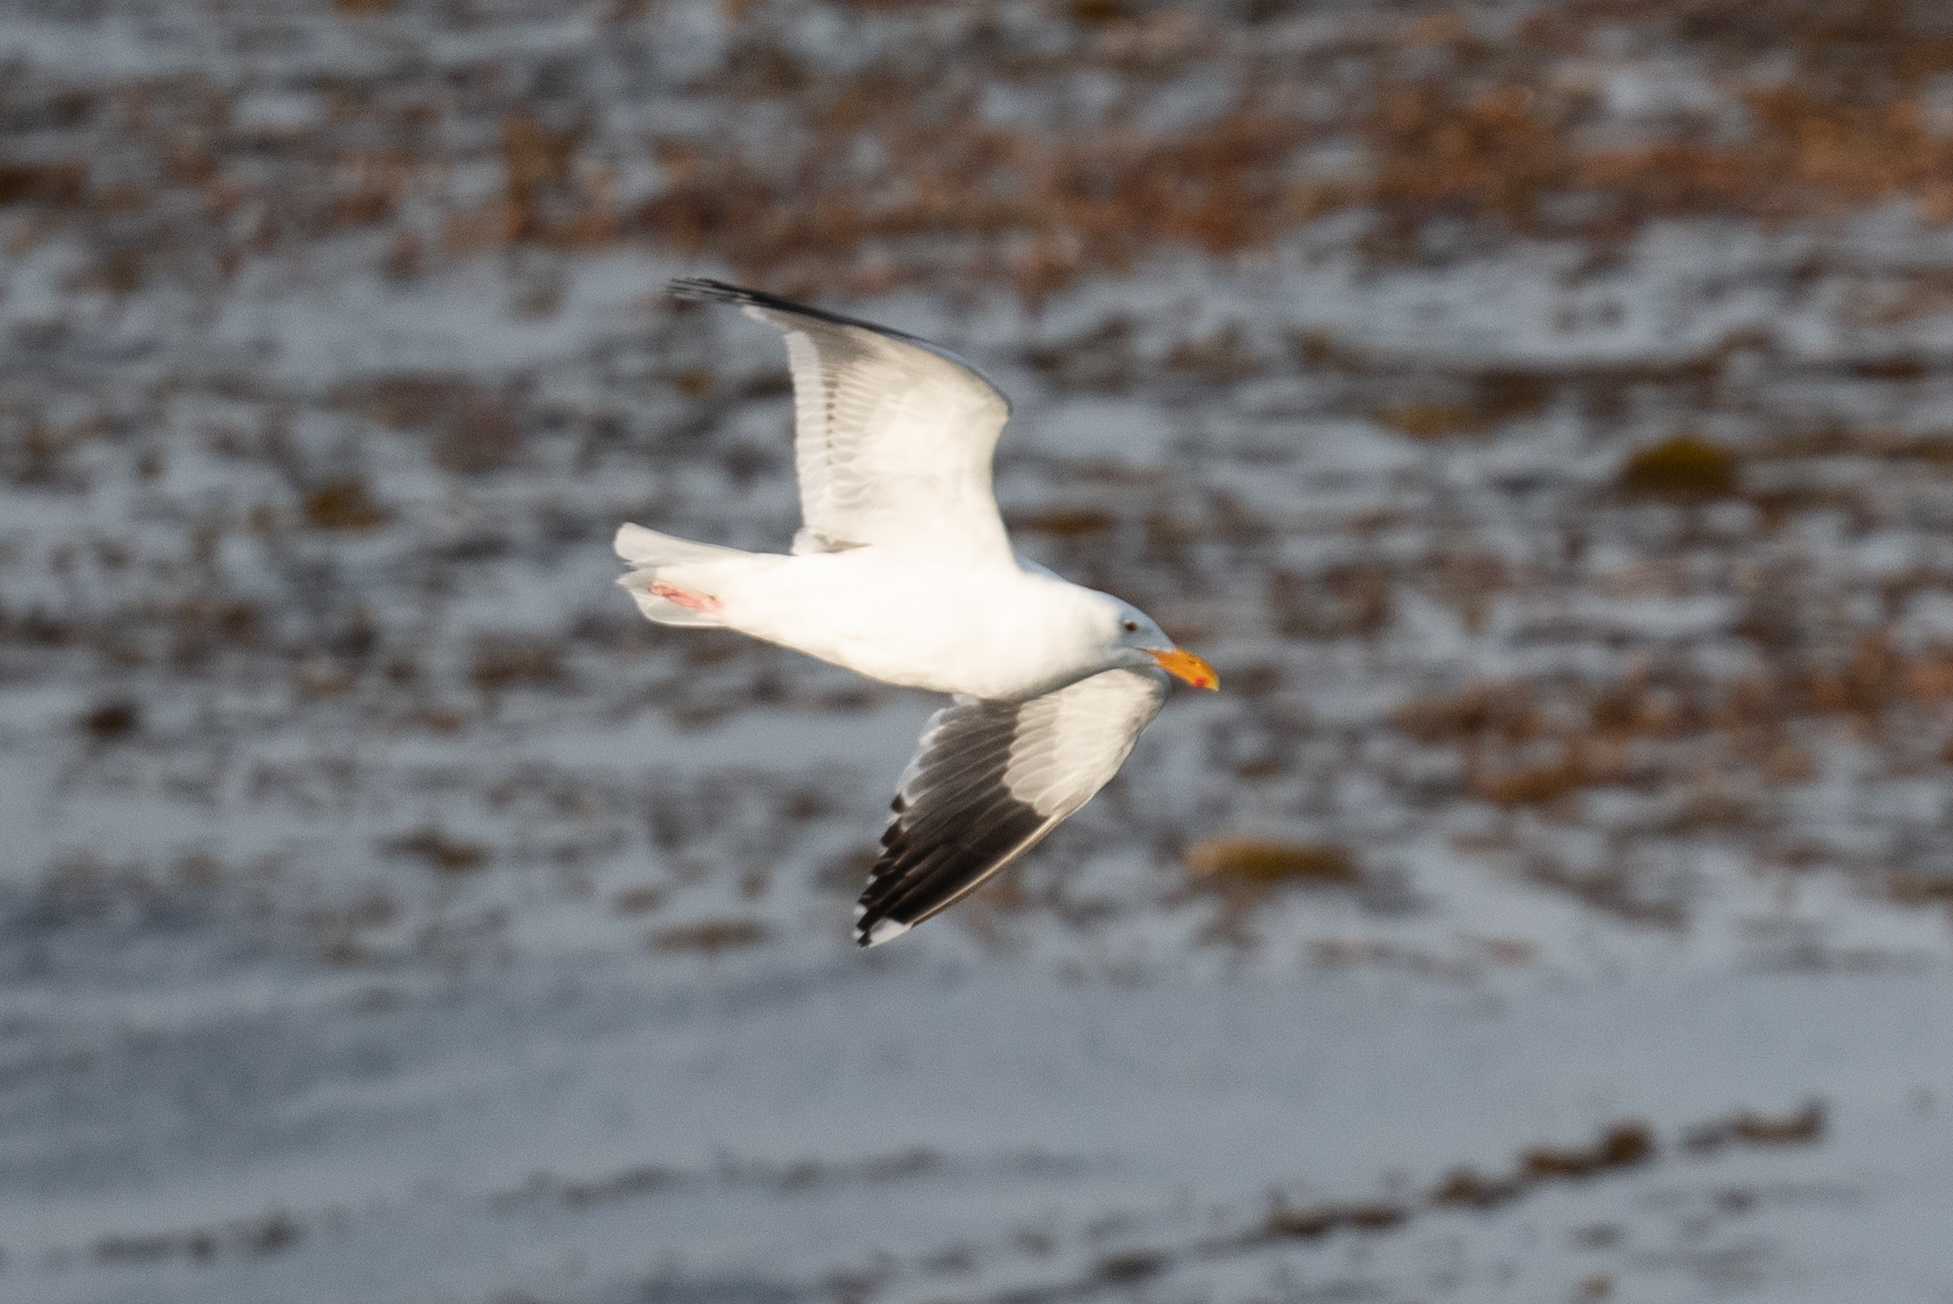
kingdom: Animalia
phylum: Chordata
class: Aves
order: Charadriiformes
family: Laridae
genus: Larus
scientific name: Larus occidentalis
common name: Western gull
